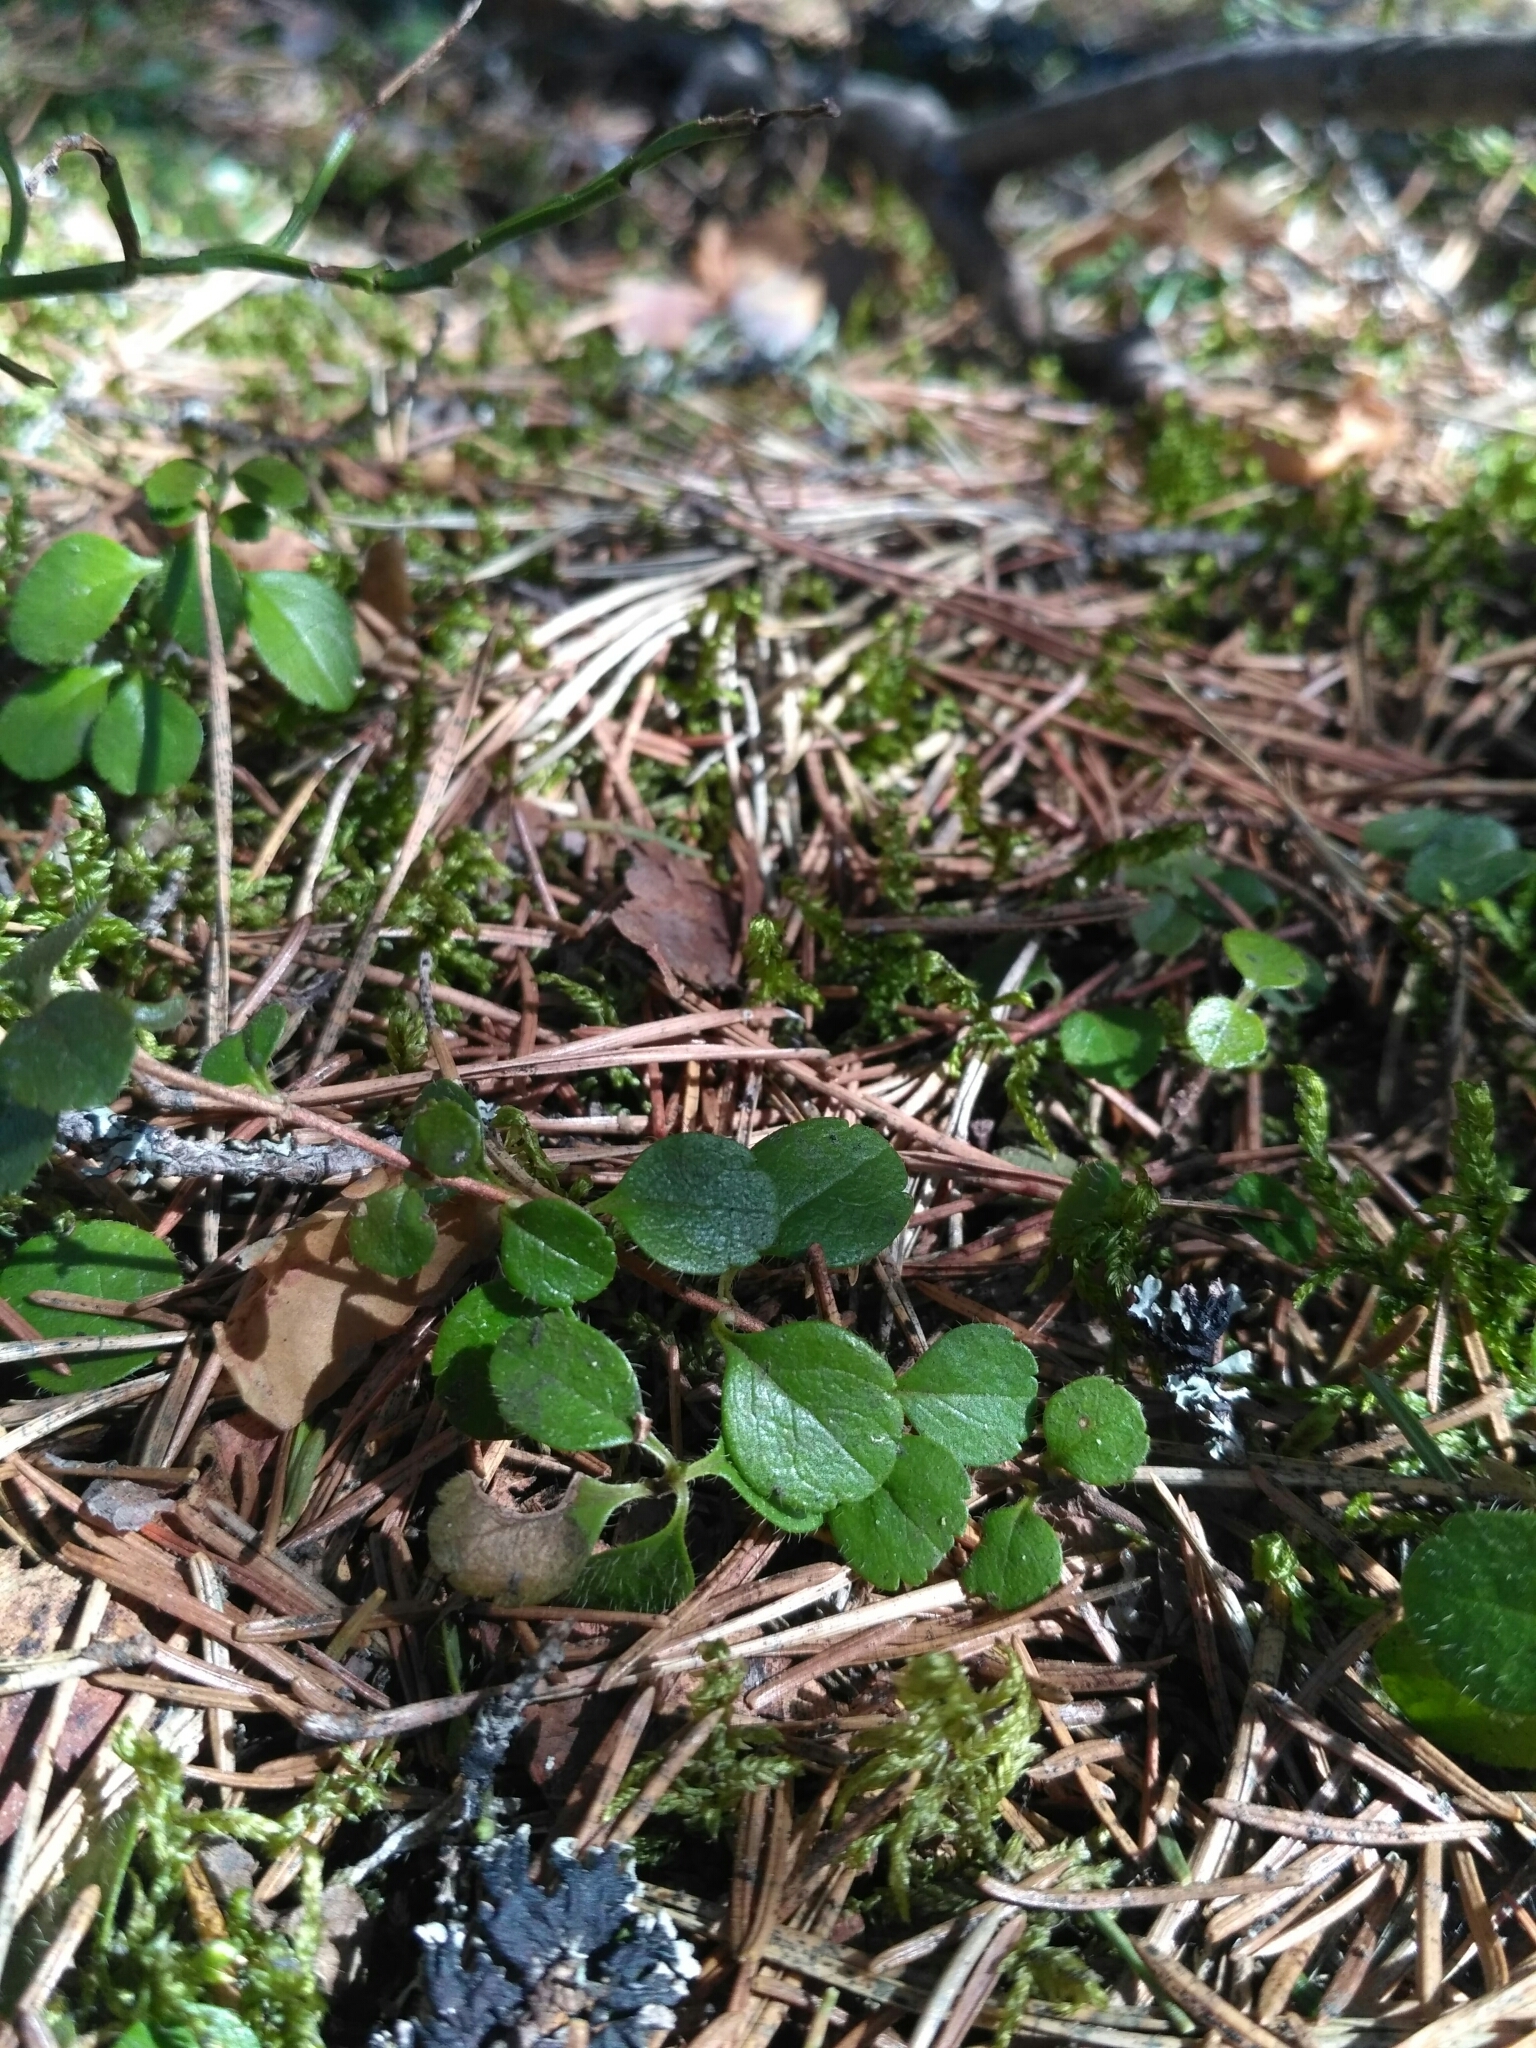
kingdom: Plantae
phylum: Tracheophyta
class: Magnoliopsida
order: Dipsacales
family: Caprifoliaceae
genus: Linnaea
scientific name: Linnaea borealis
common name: Twinflower
